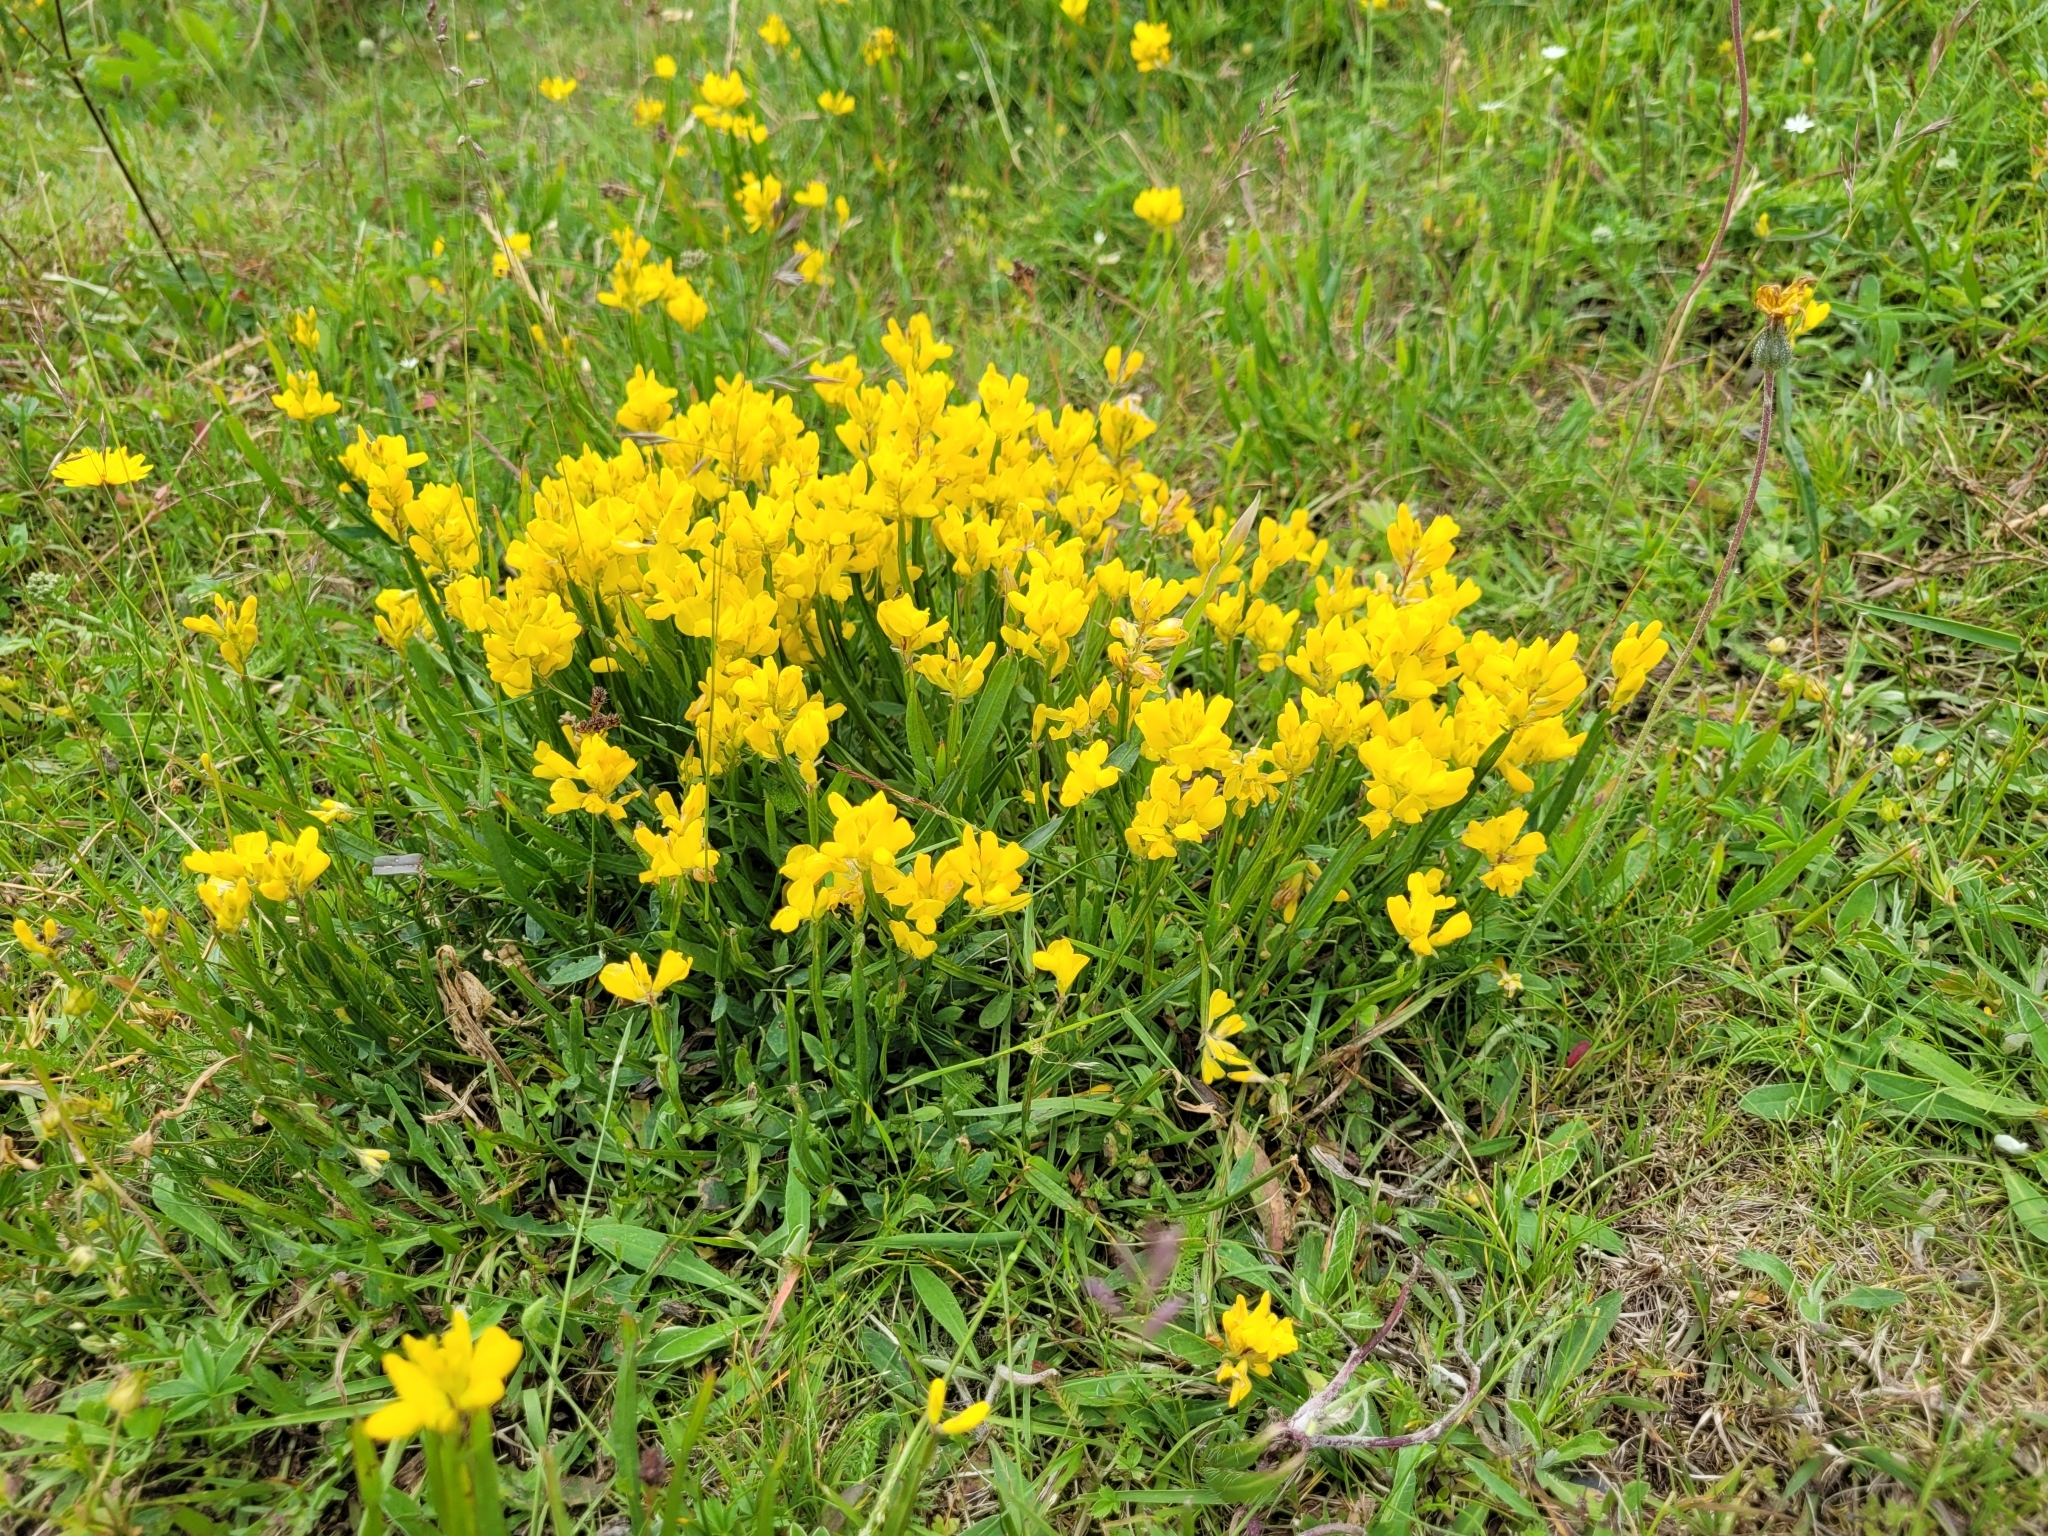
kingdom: Plantae
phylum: Tracheophyta
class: Magnoliopsida
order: Fabales
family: Fabaceae
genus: Genista
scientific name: Genista sagittalis
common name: Winged greenweed
